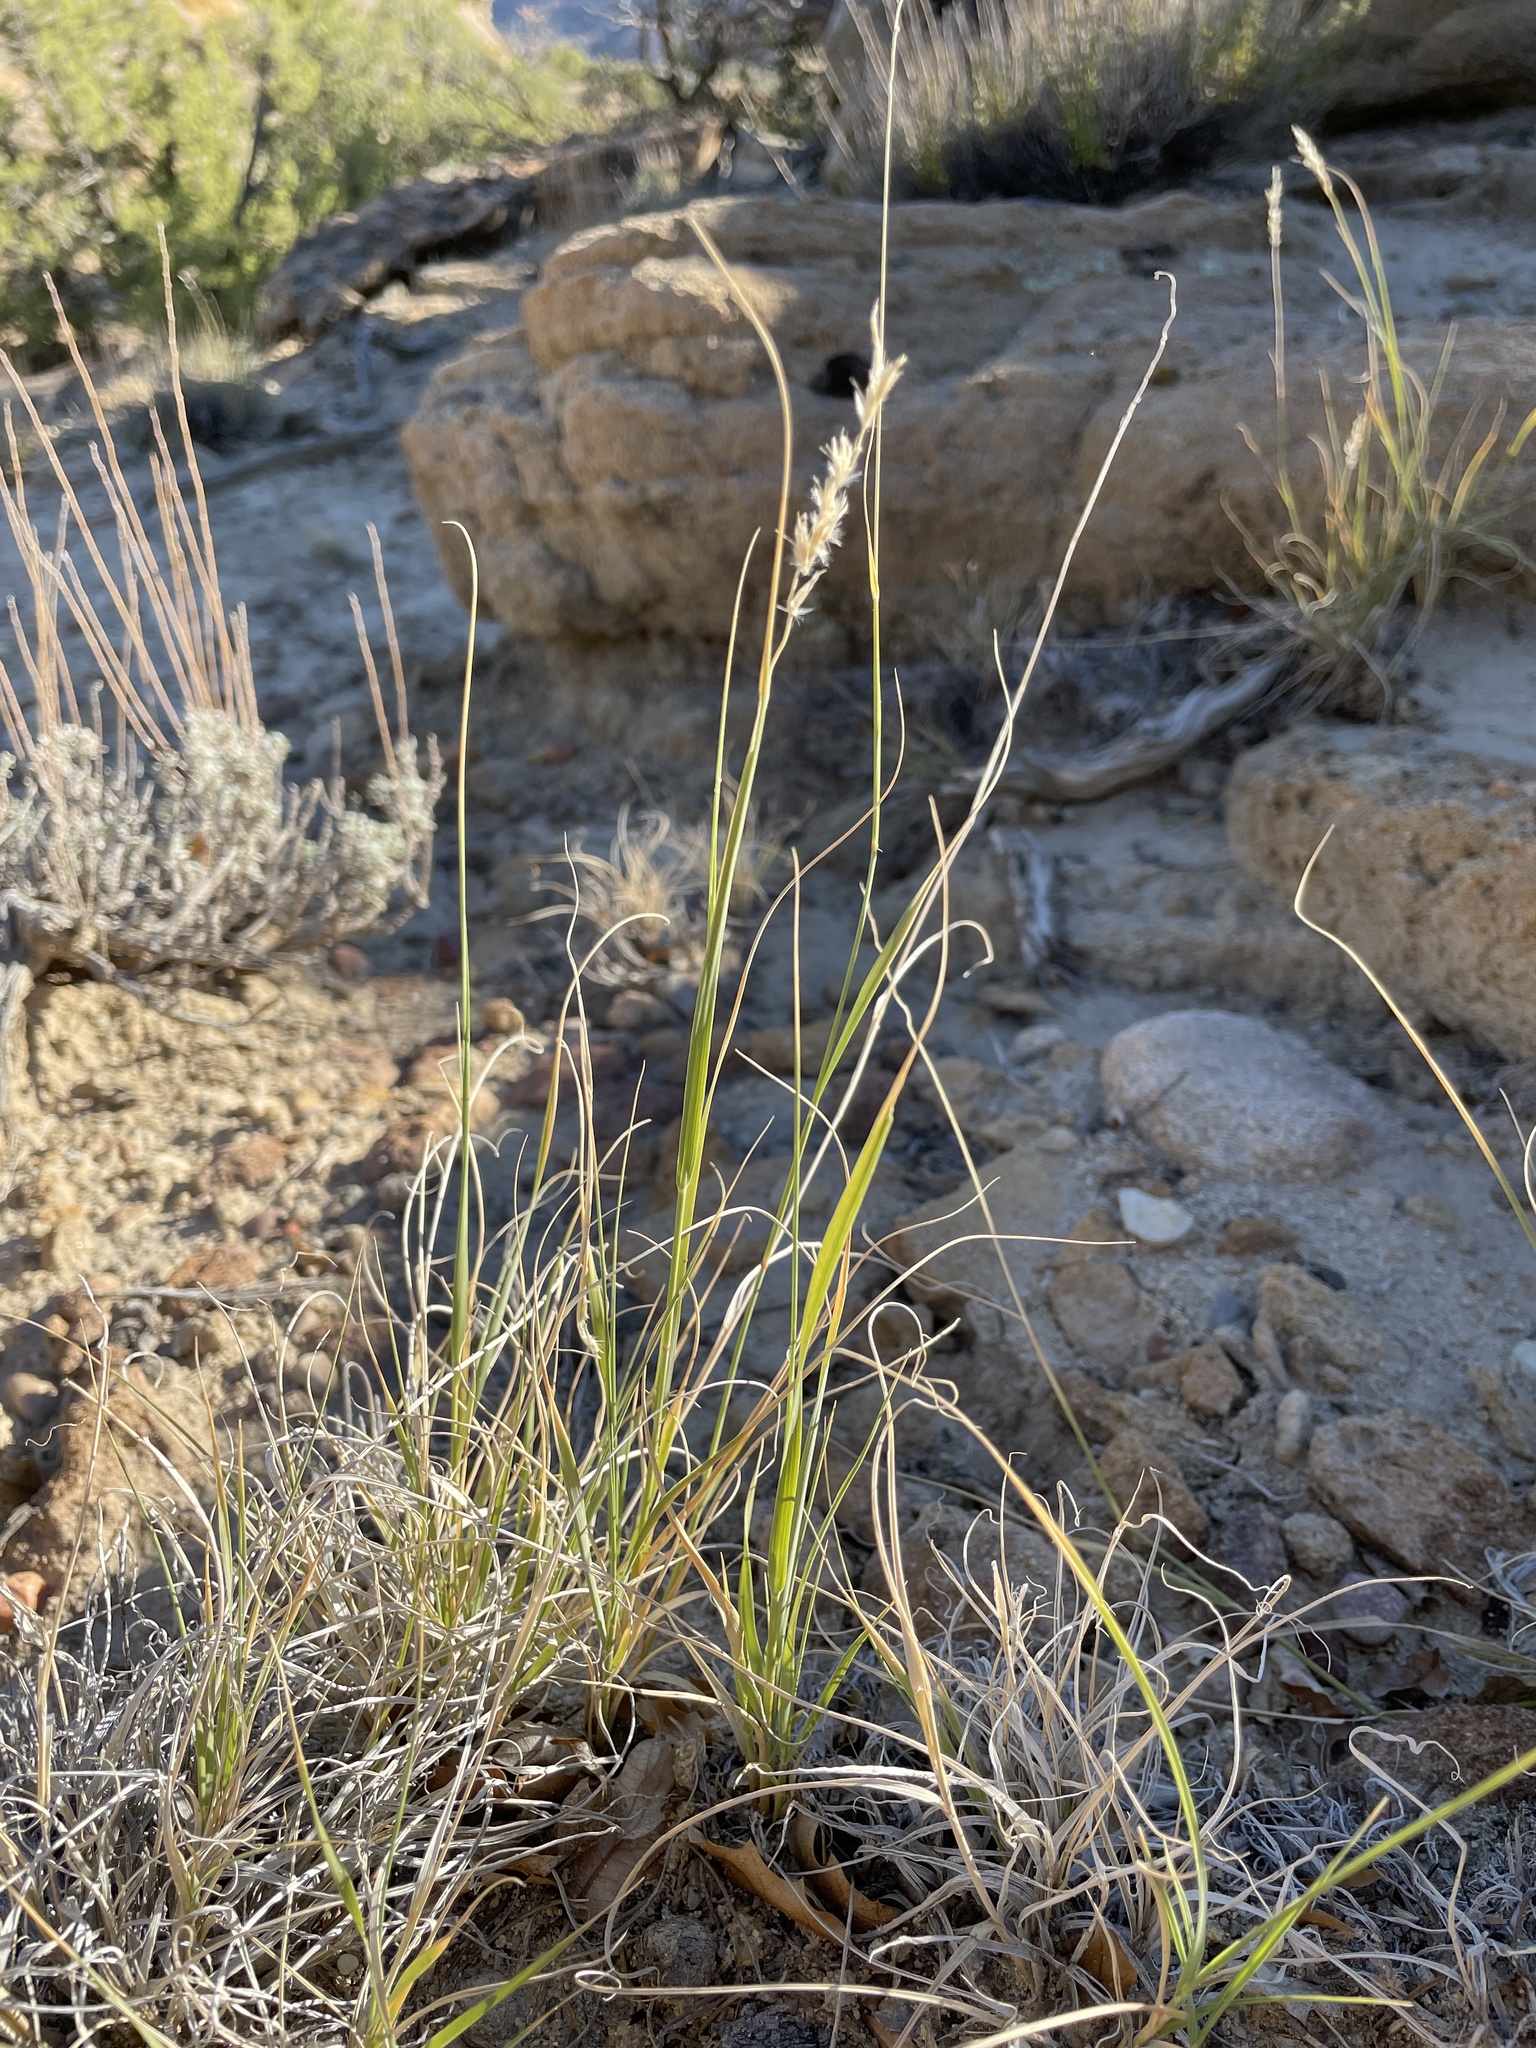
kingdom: Plantae
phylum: Tracheophyta
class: Liliopsida
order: Poales
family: Poaceae
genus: Hilaria
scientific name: Hilaria jamesii
